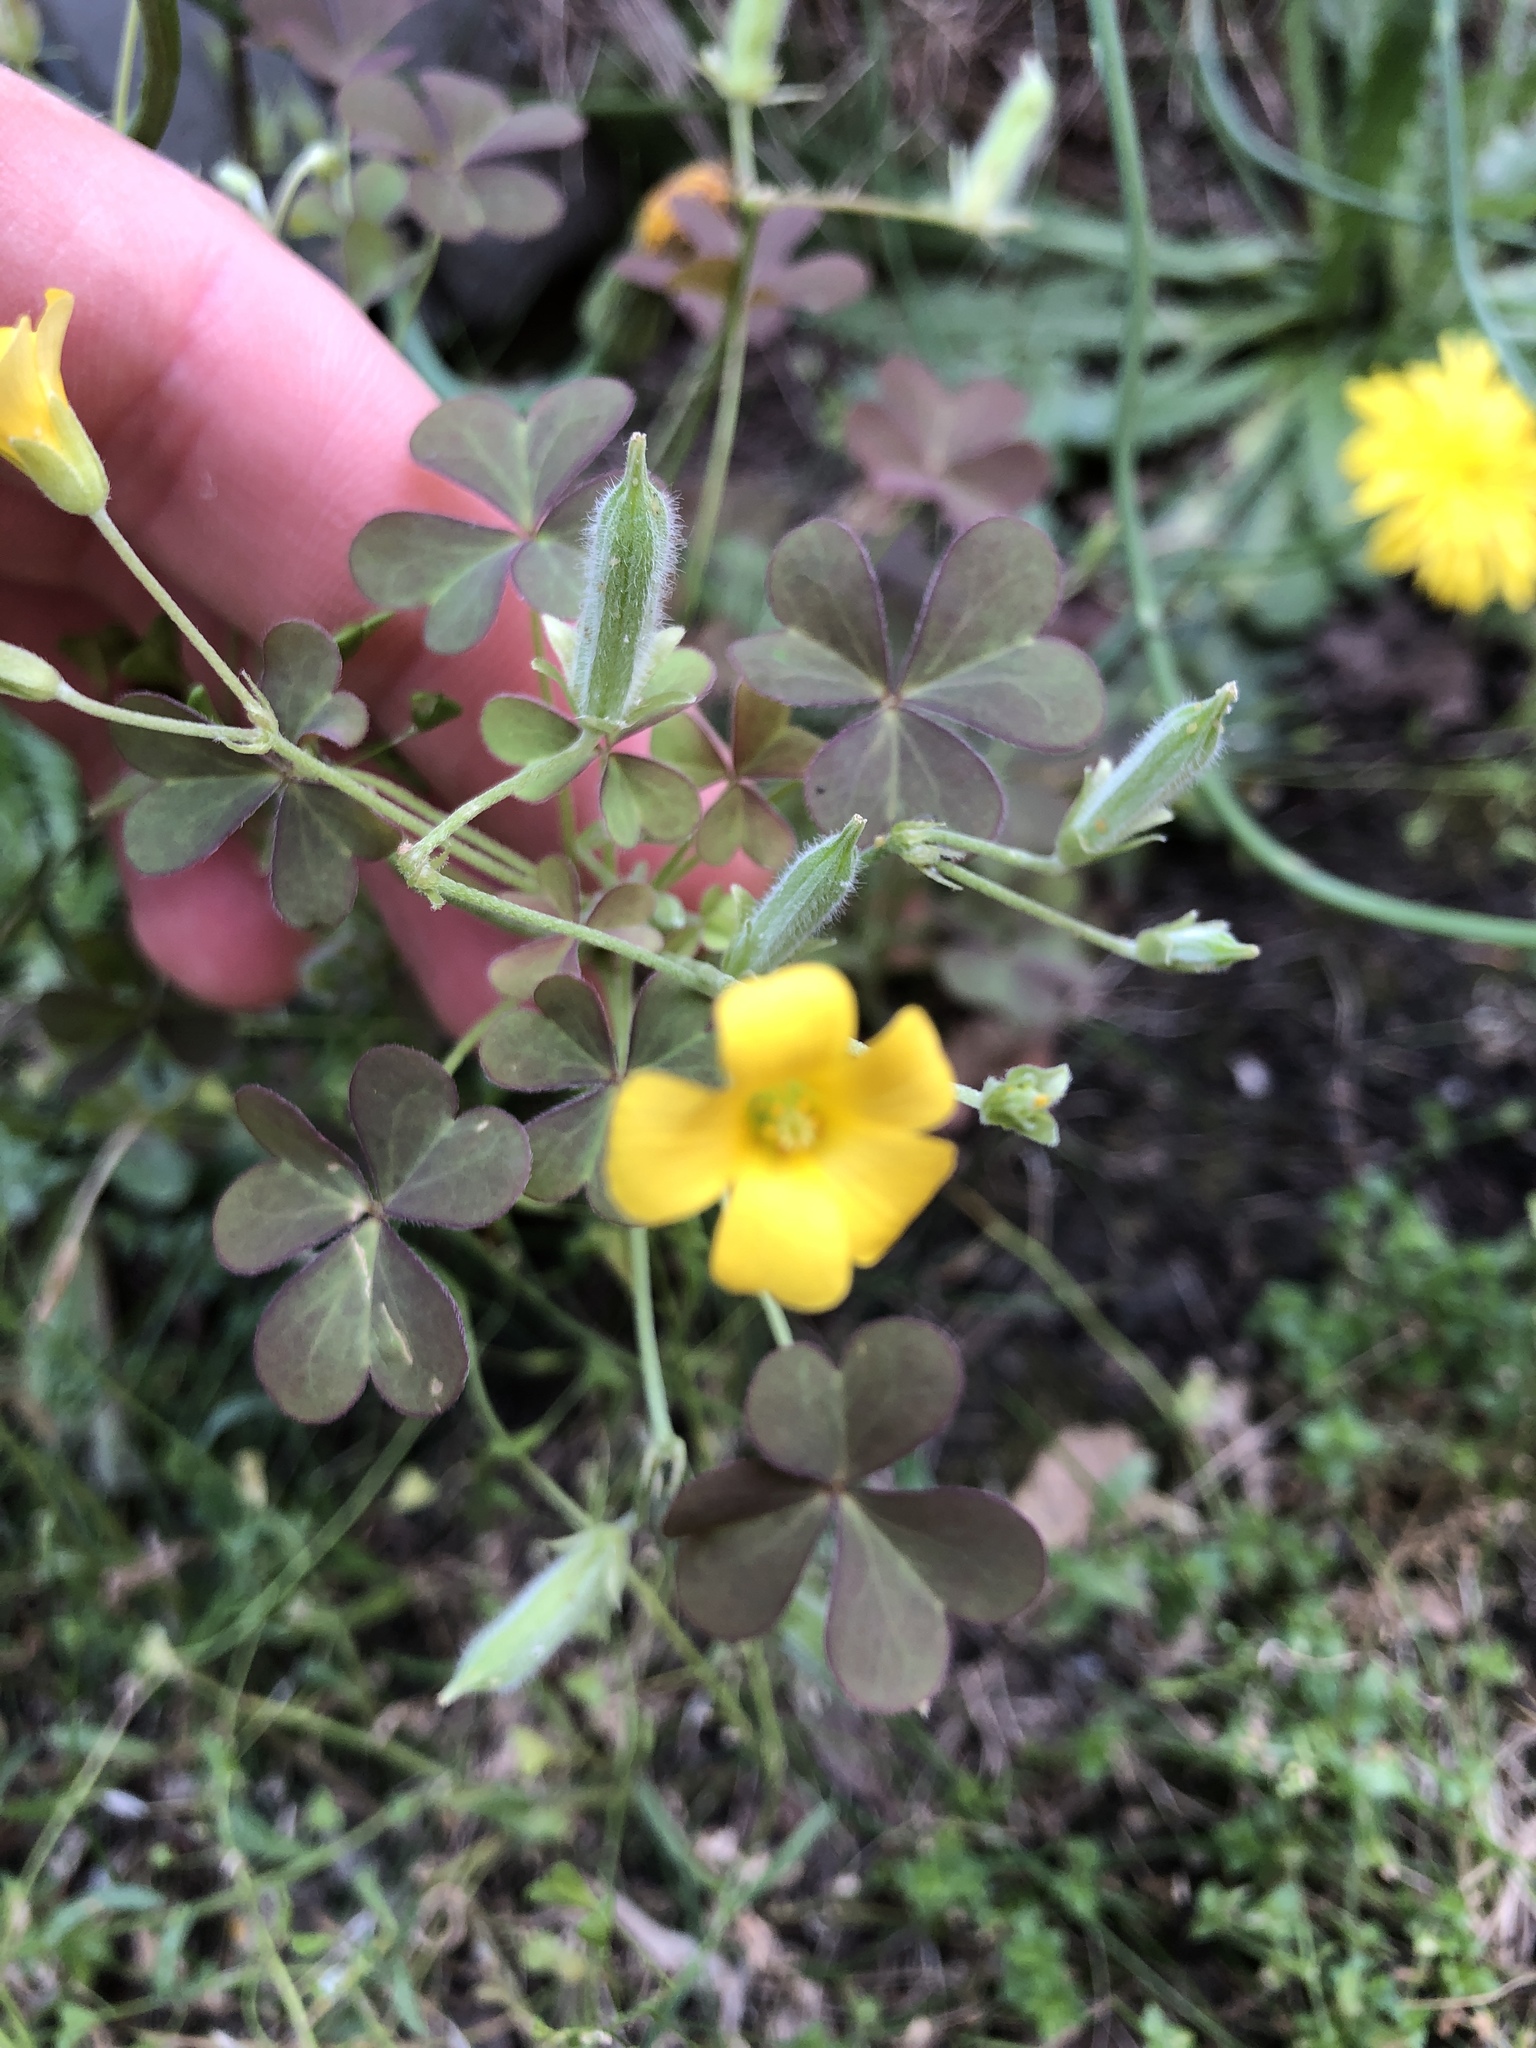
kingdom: Plantae
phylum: Tracheophyta
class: Magnoliopsida
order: Oxalidales
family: Oxalidaceae
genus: Oxalis
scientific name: Oxalis corniculata
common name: Procumbent yellow-sorrel
